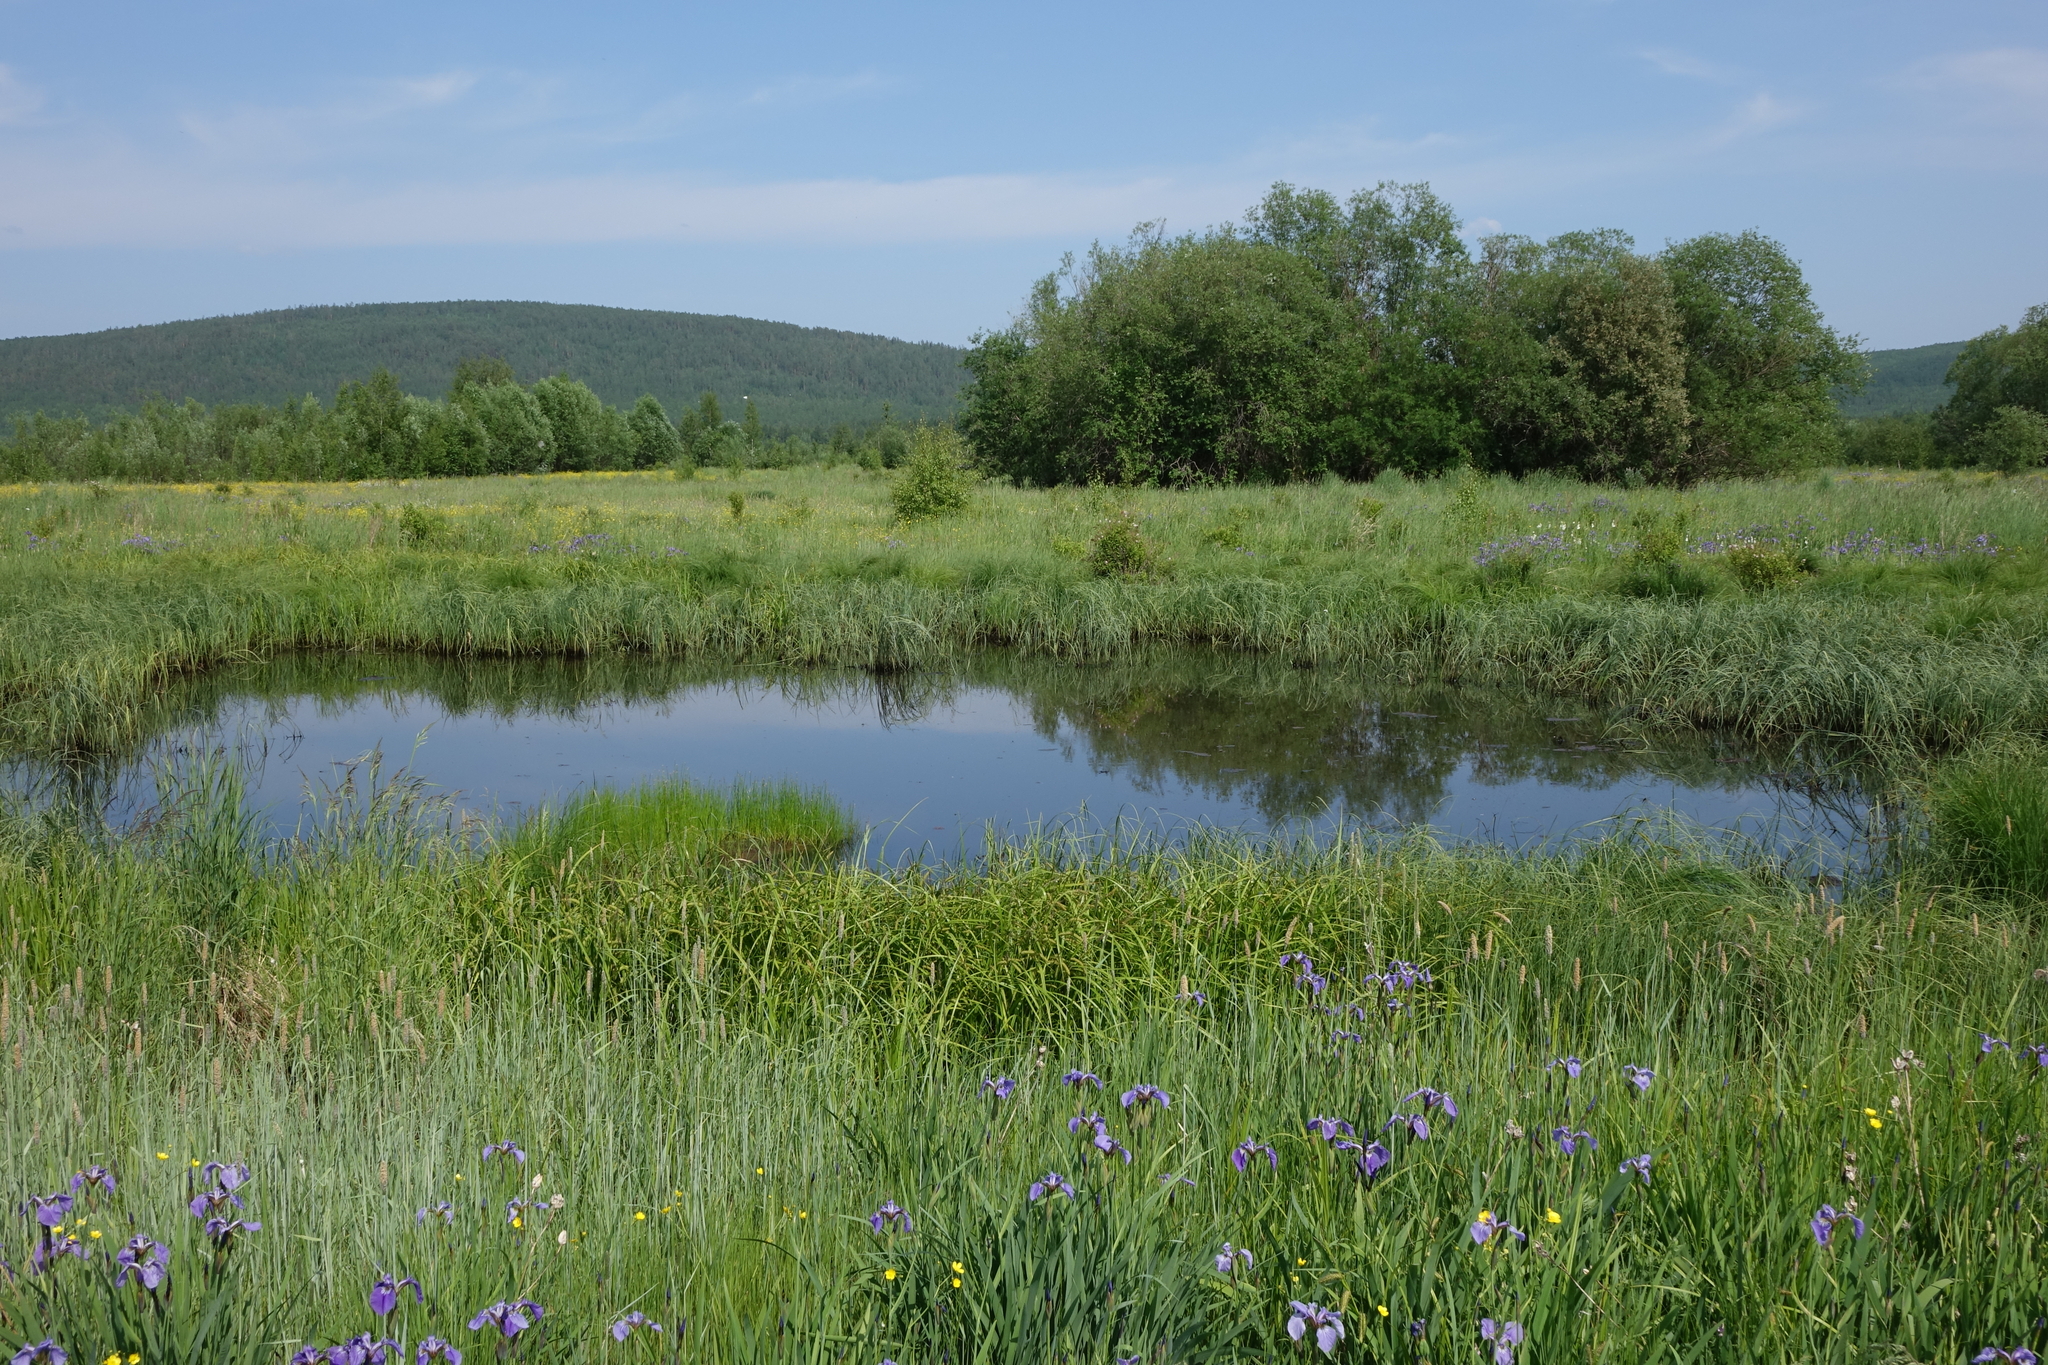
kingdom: Plantae
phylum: Tracheophyta
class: Liliopsida
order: Asparagales
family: Iridaceae
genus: Iris
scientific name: Iris setosa
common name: Arctic blue flag
